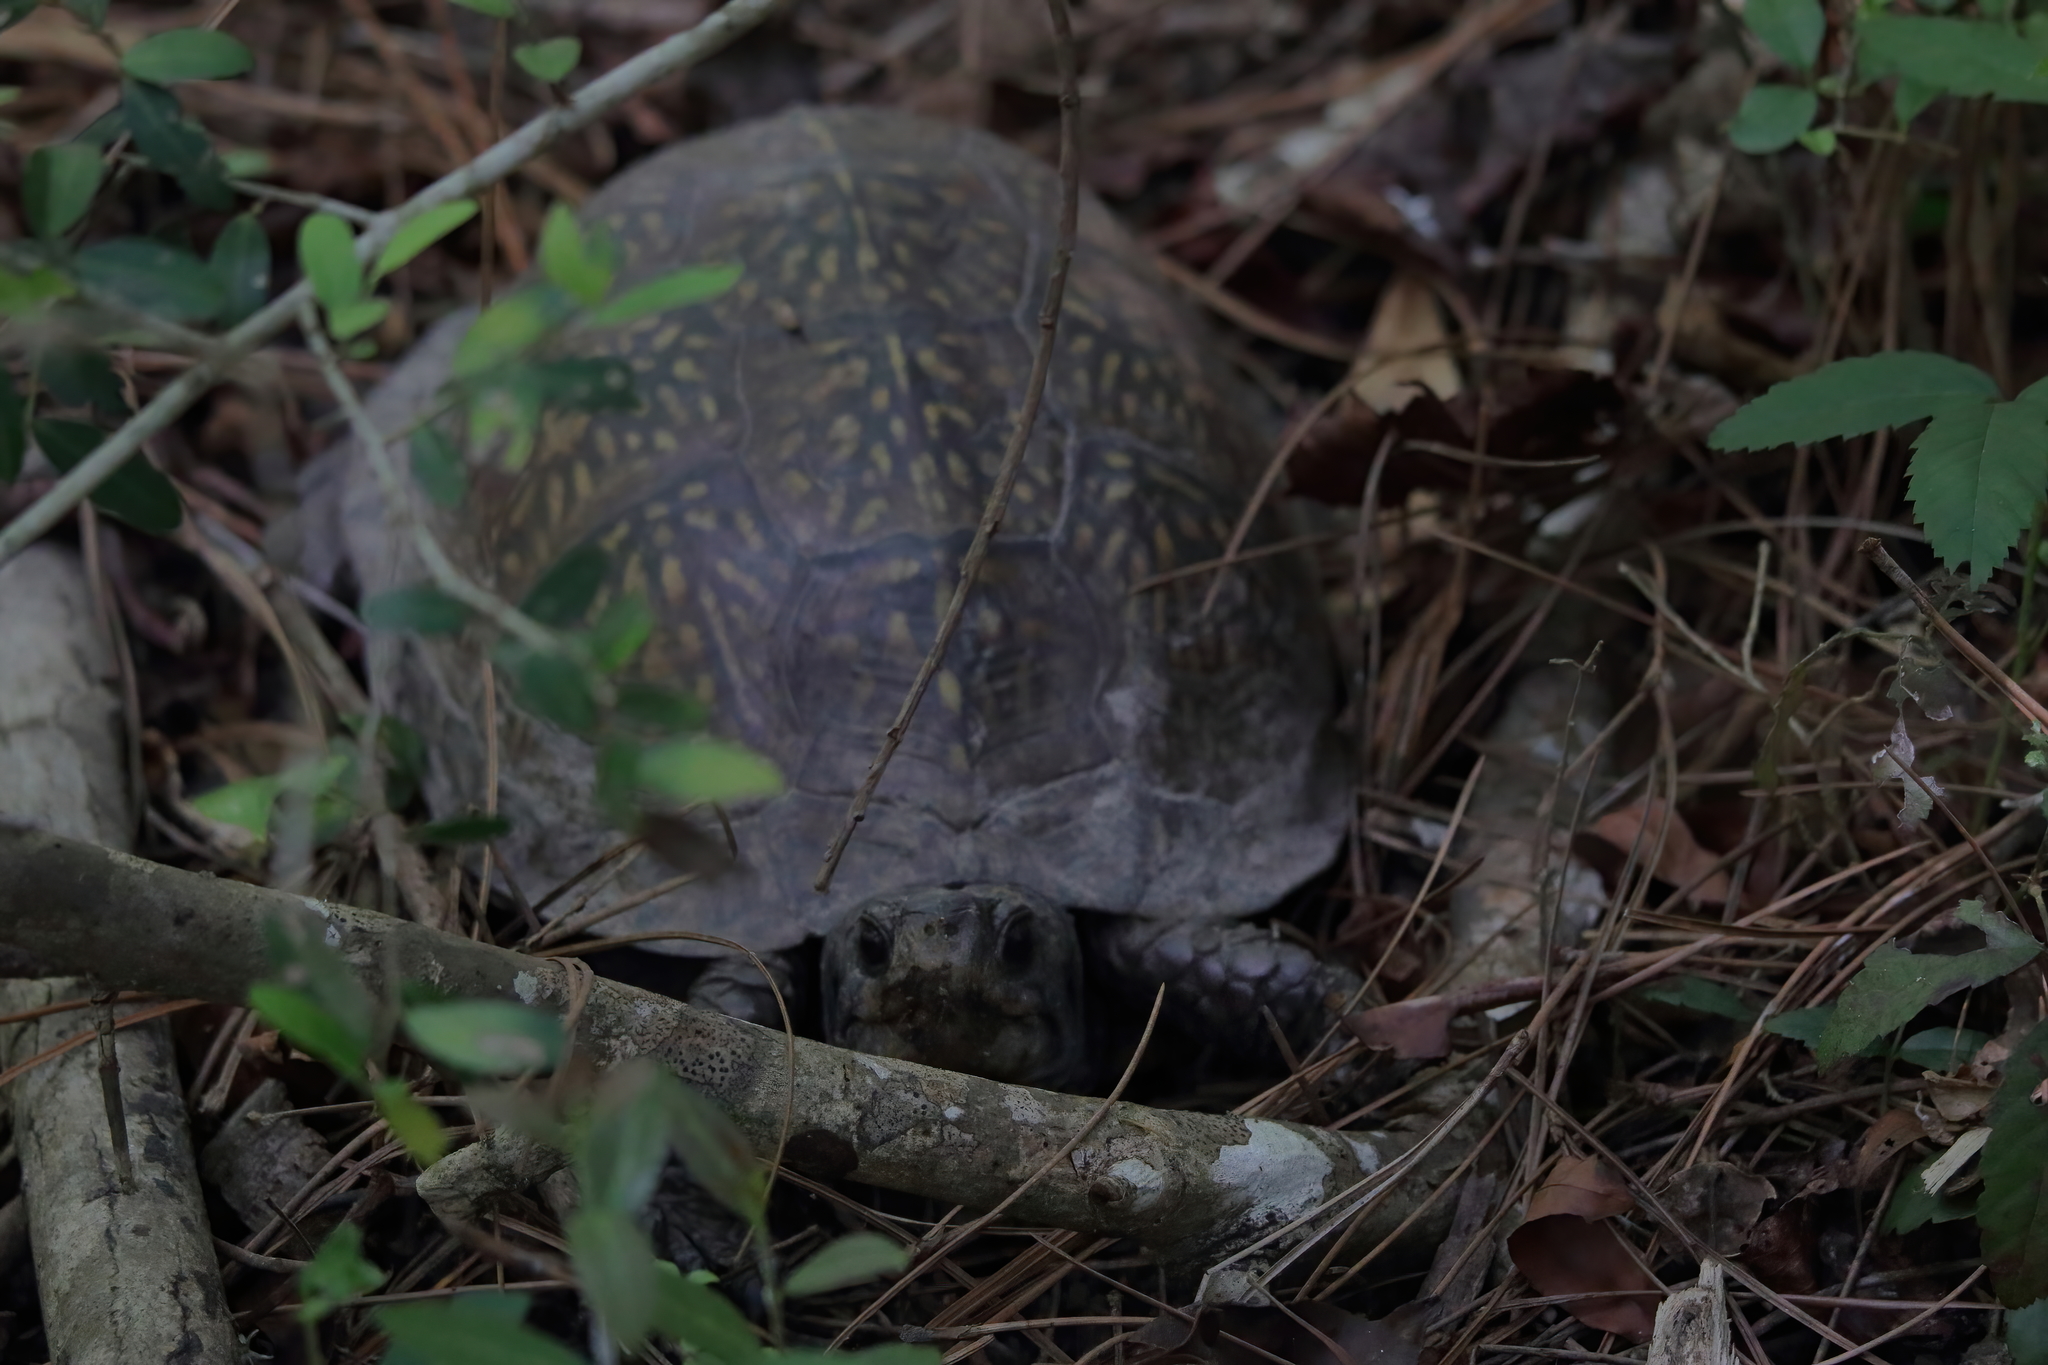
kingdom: Animalia
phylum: Chordata
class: Testudines
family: Emydidae
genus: Terrapene
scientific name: Terrapene carolina
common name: Common box turtle
